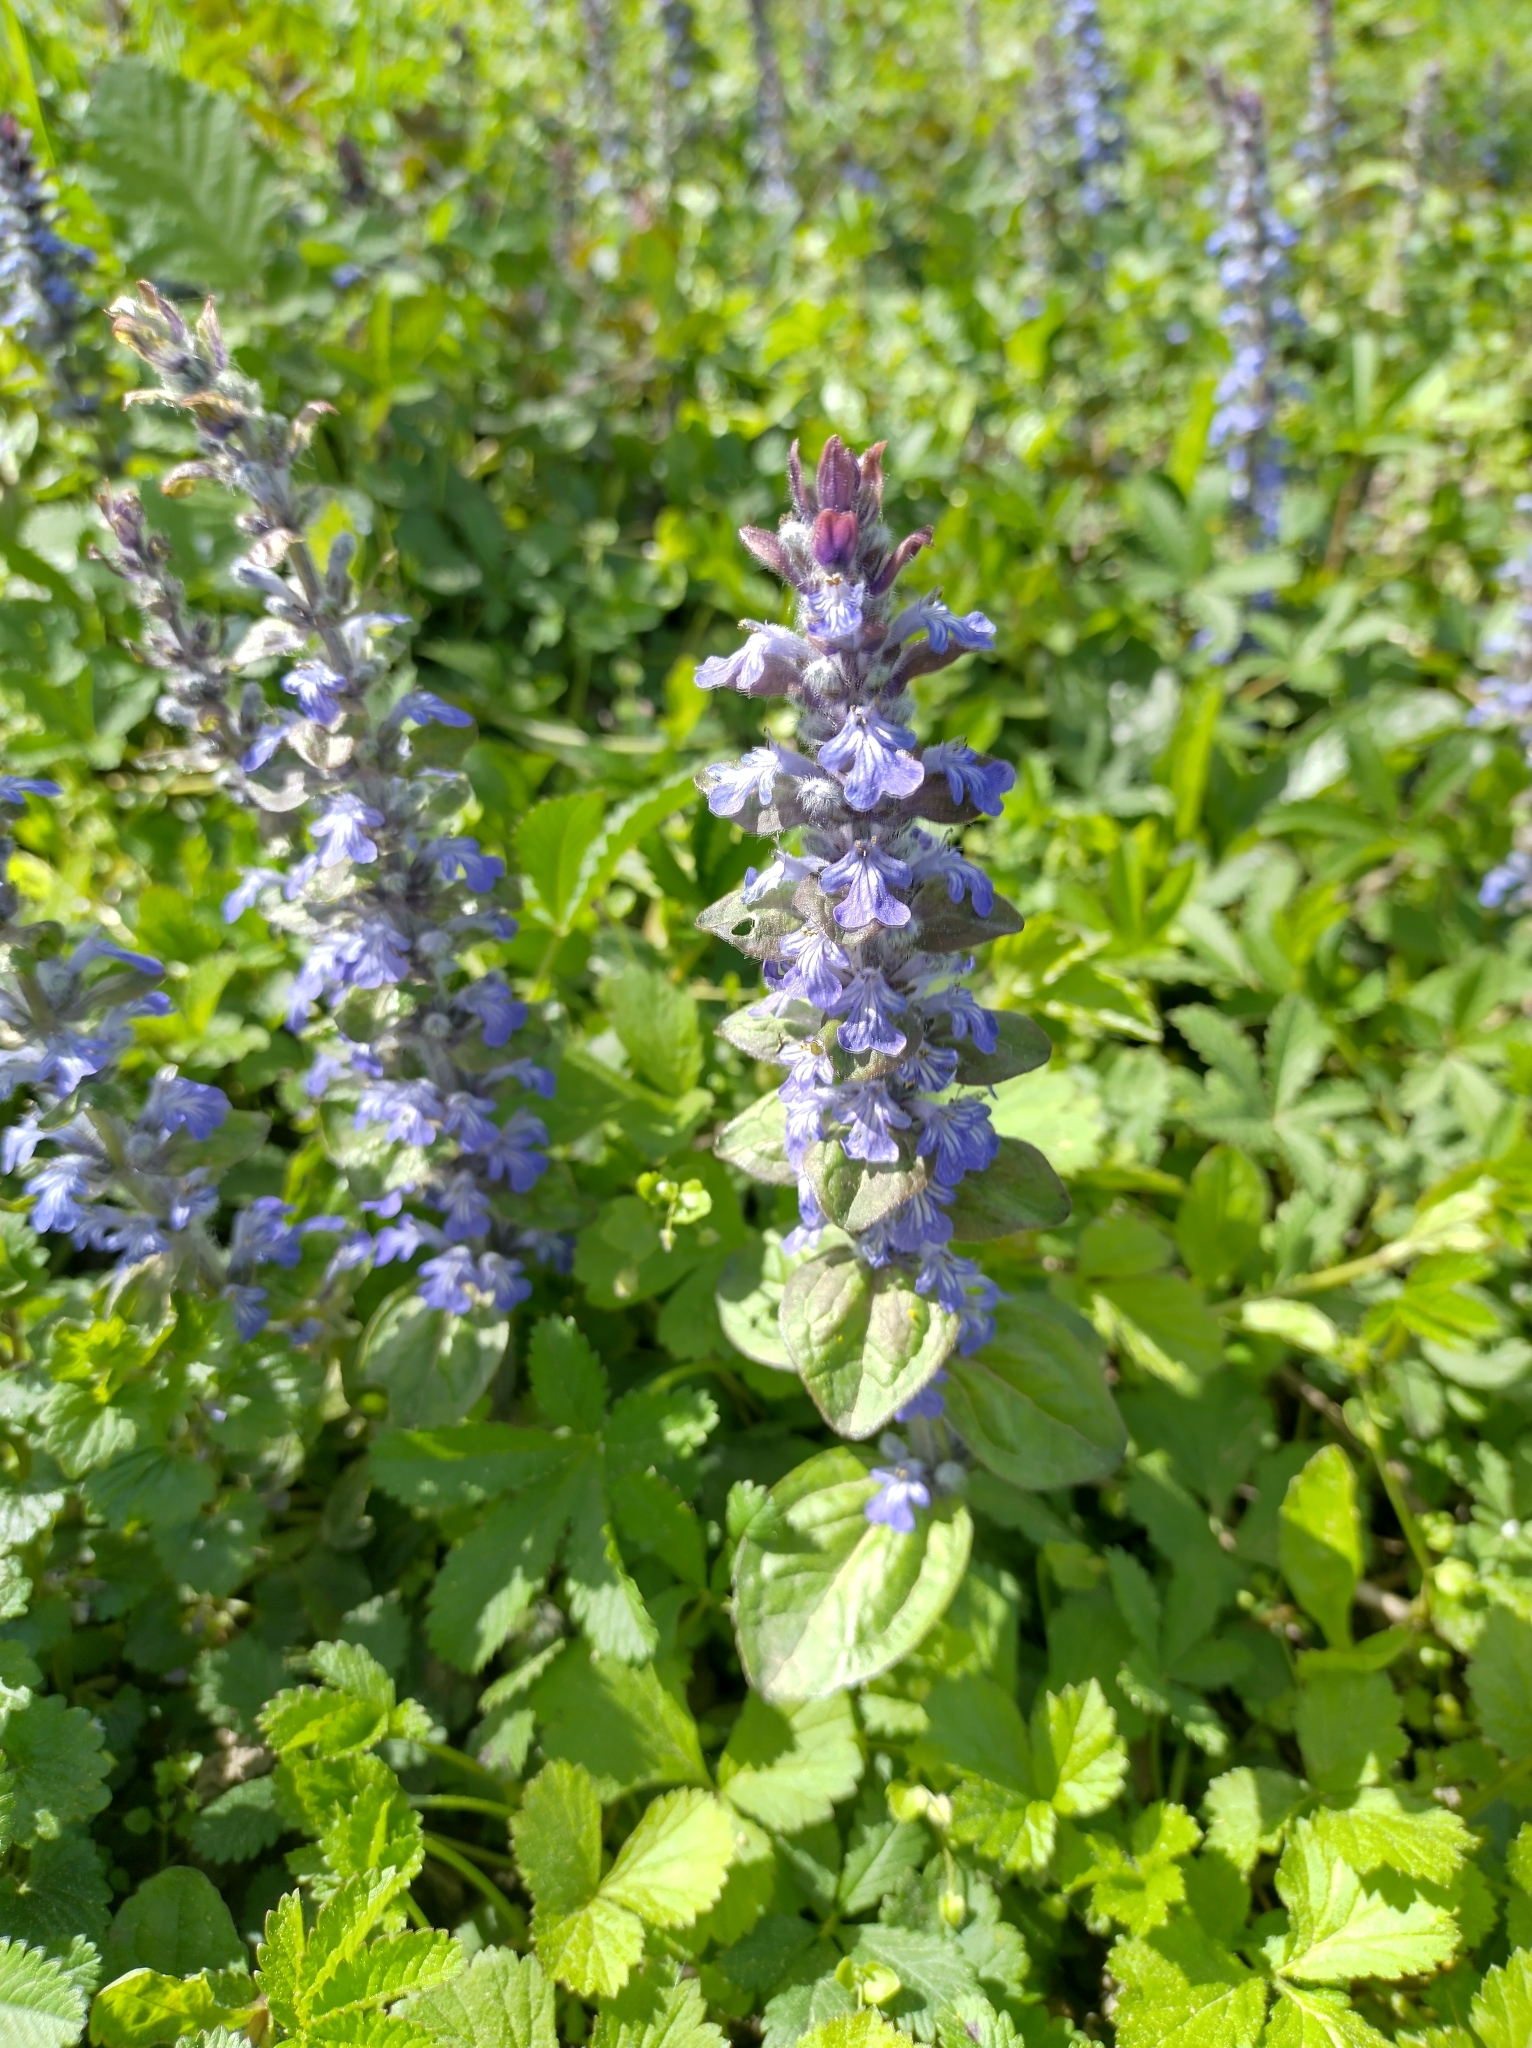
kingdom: Plantae
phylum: Tracheophyta
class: Magnoliopsida
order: Lamiales
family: Lamiaceae
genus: Ajuga
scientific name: Ajuga reptans
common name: Bugle
